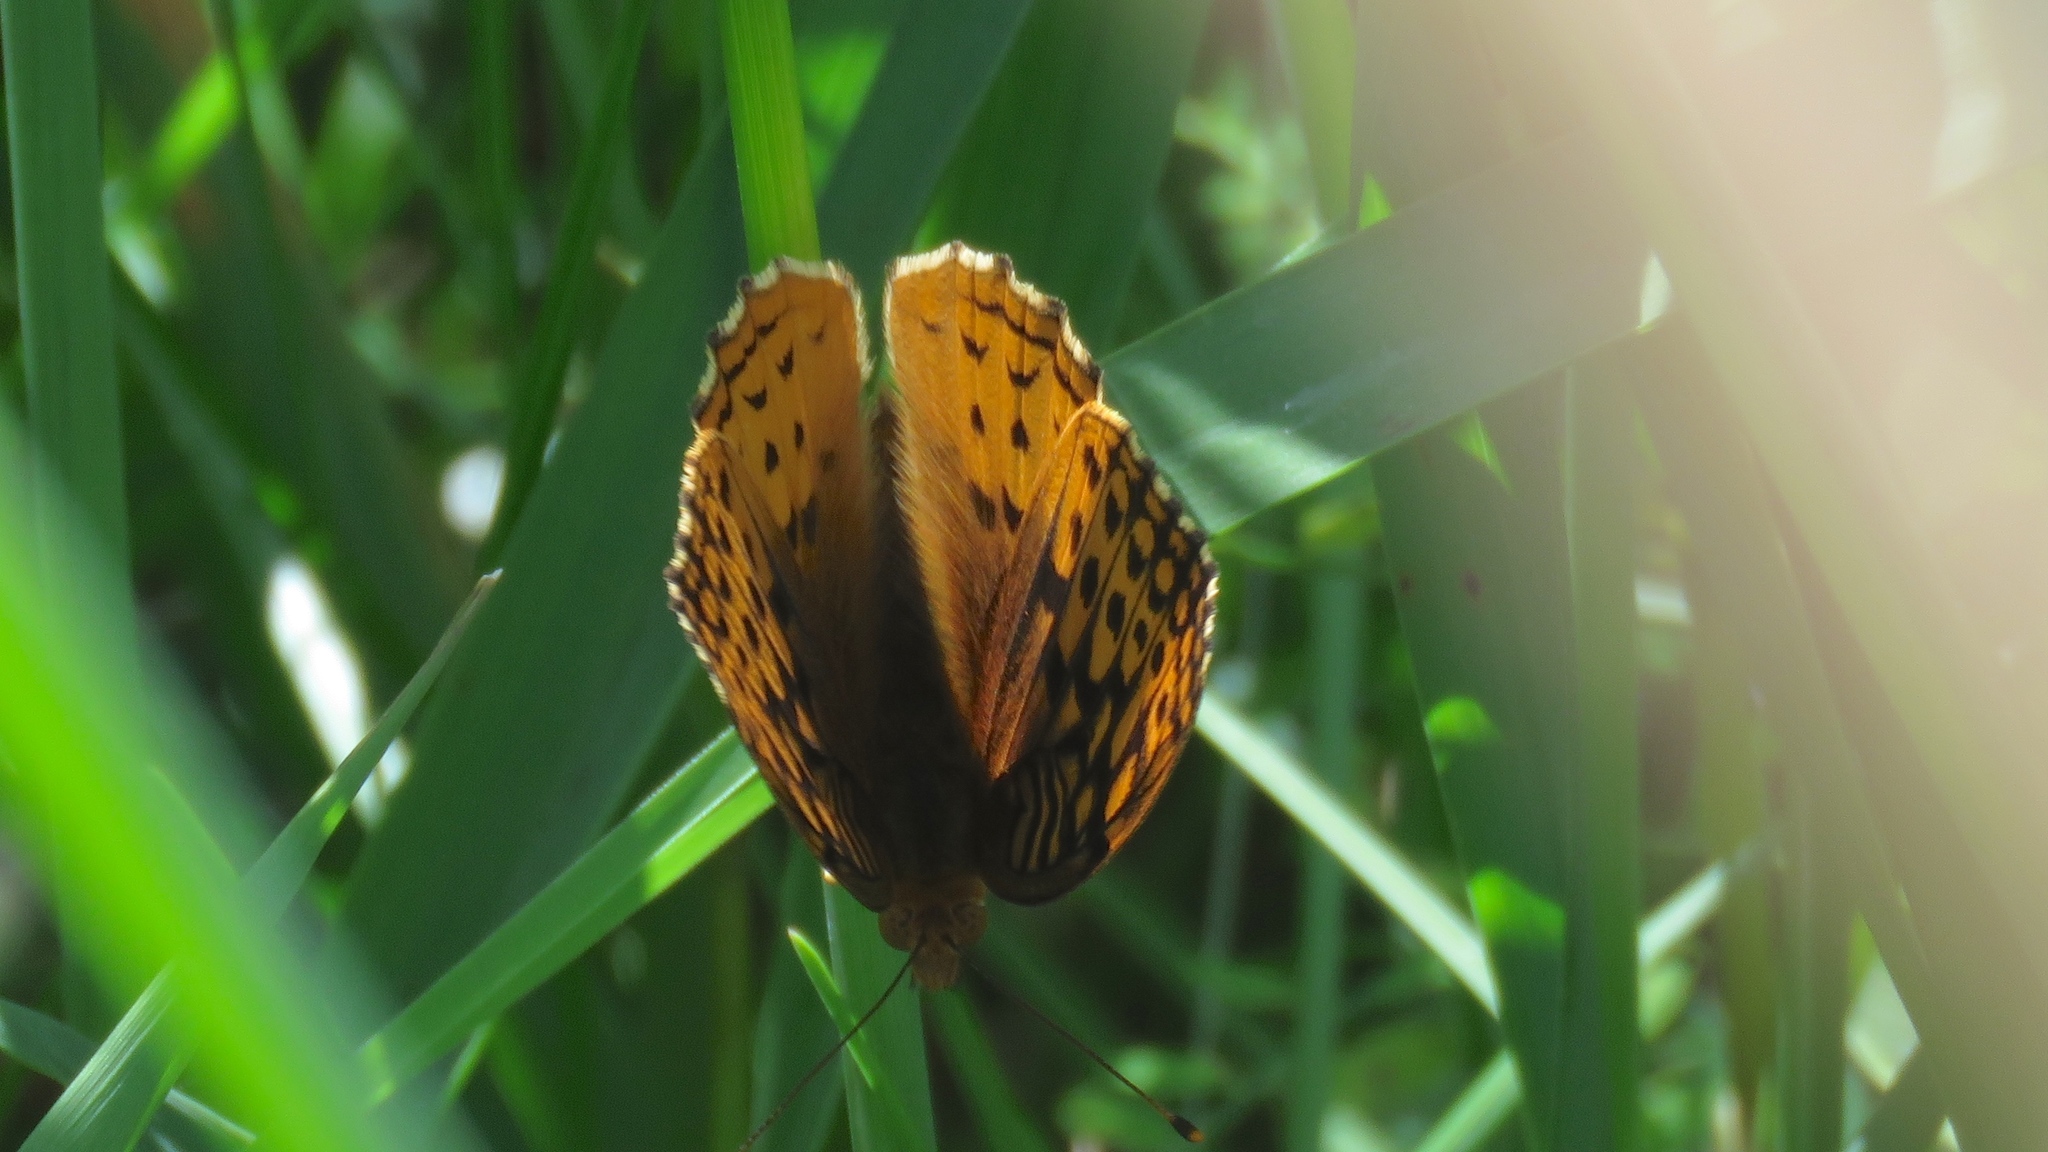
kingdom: Animalia
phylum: Arthropoda
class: Insecta
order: Lepidoptera
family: Nymphalidae
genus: Speyeria
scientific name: Speyeria cybele
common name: Great spangled fritillary
